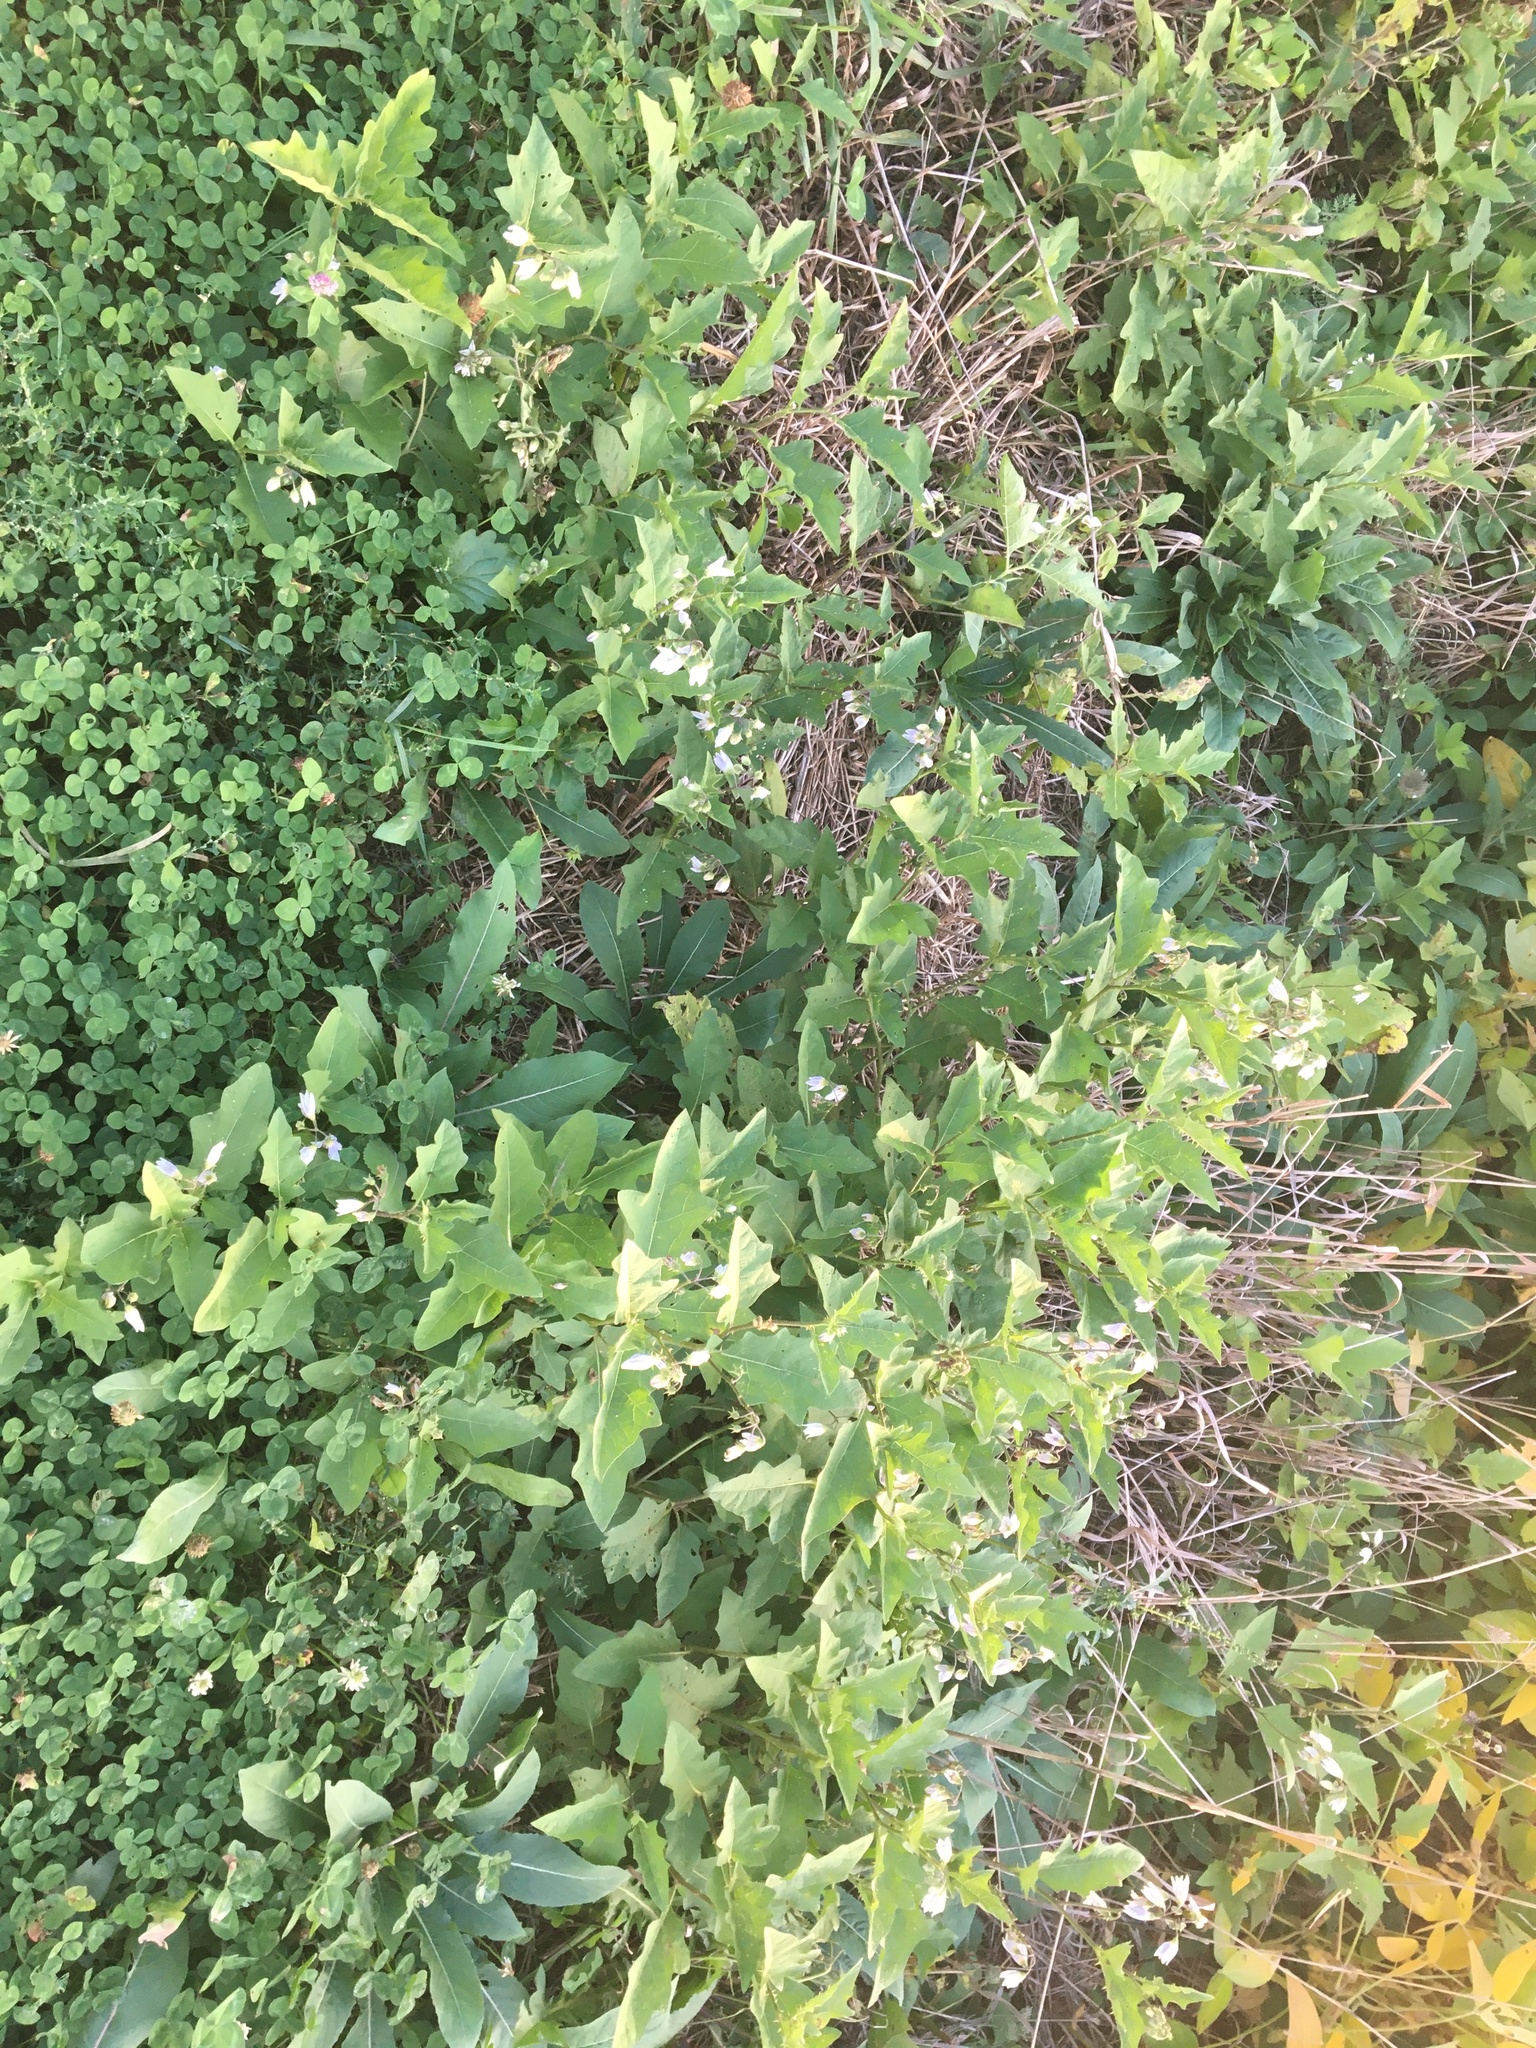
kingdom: Plantae
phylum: Tracheophyta
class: Magnoliopsida
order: Solanales
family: Solanaceae
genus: Solanum
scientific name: Solanum carolinense
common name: Horse-nettle
